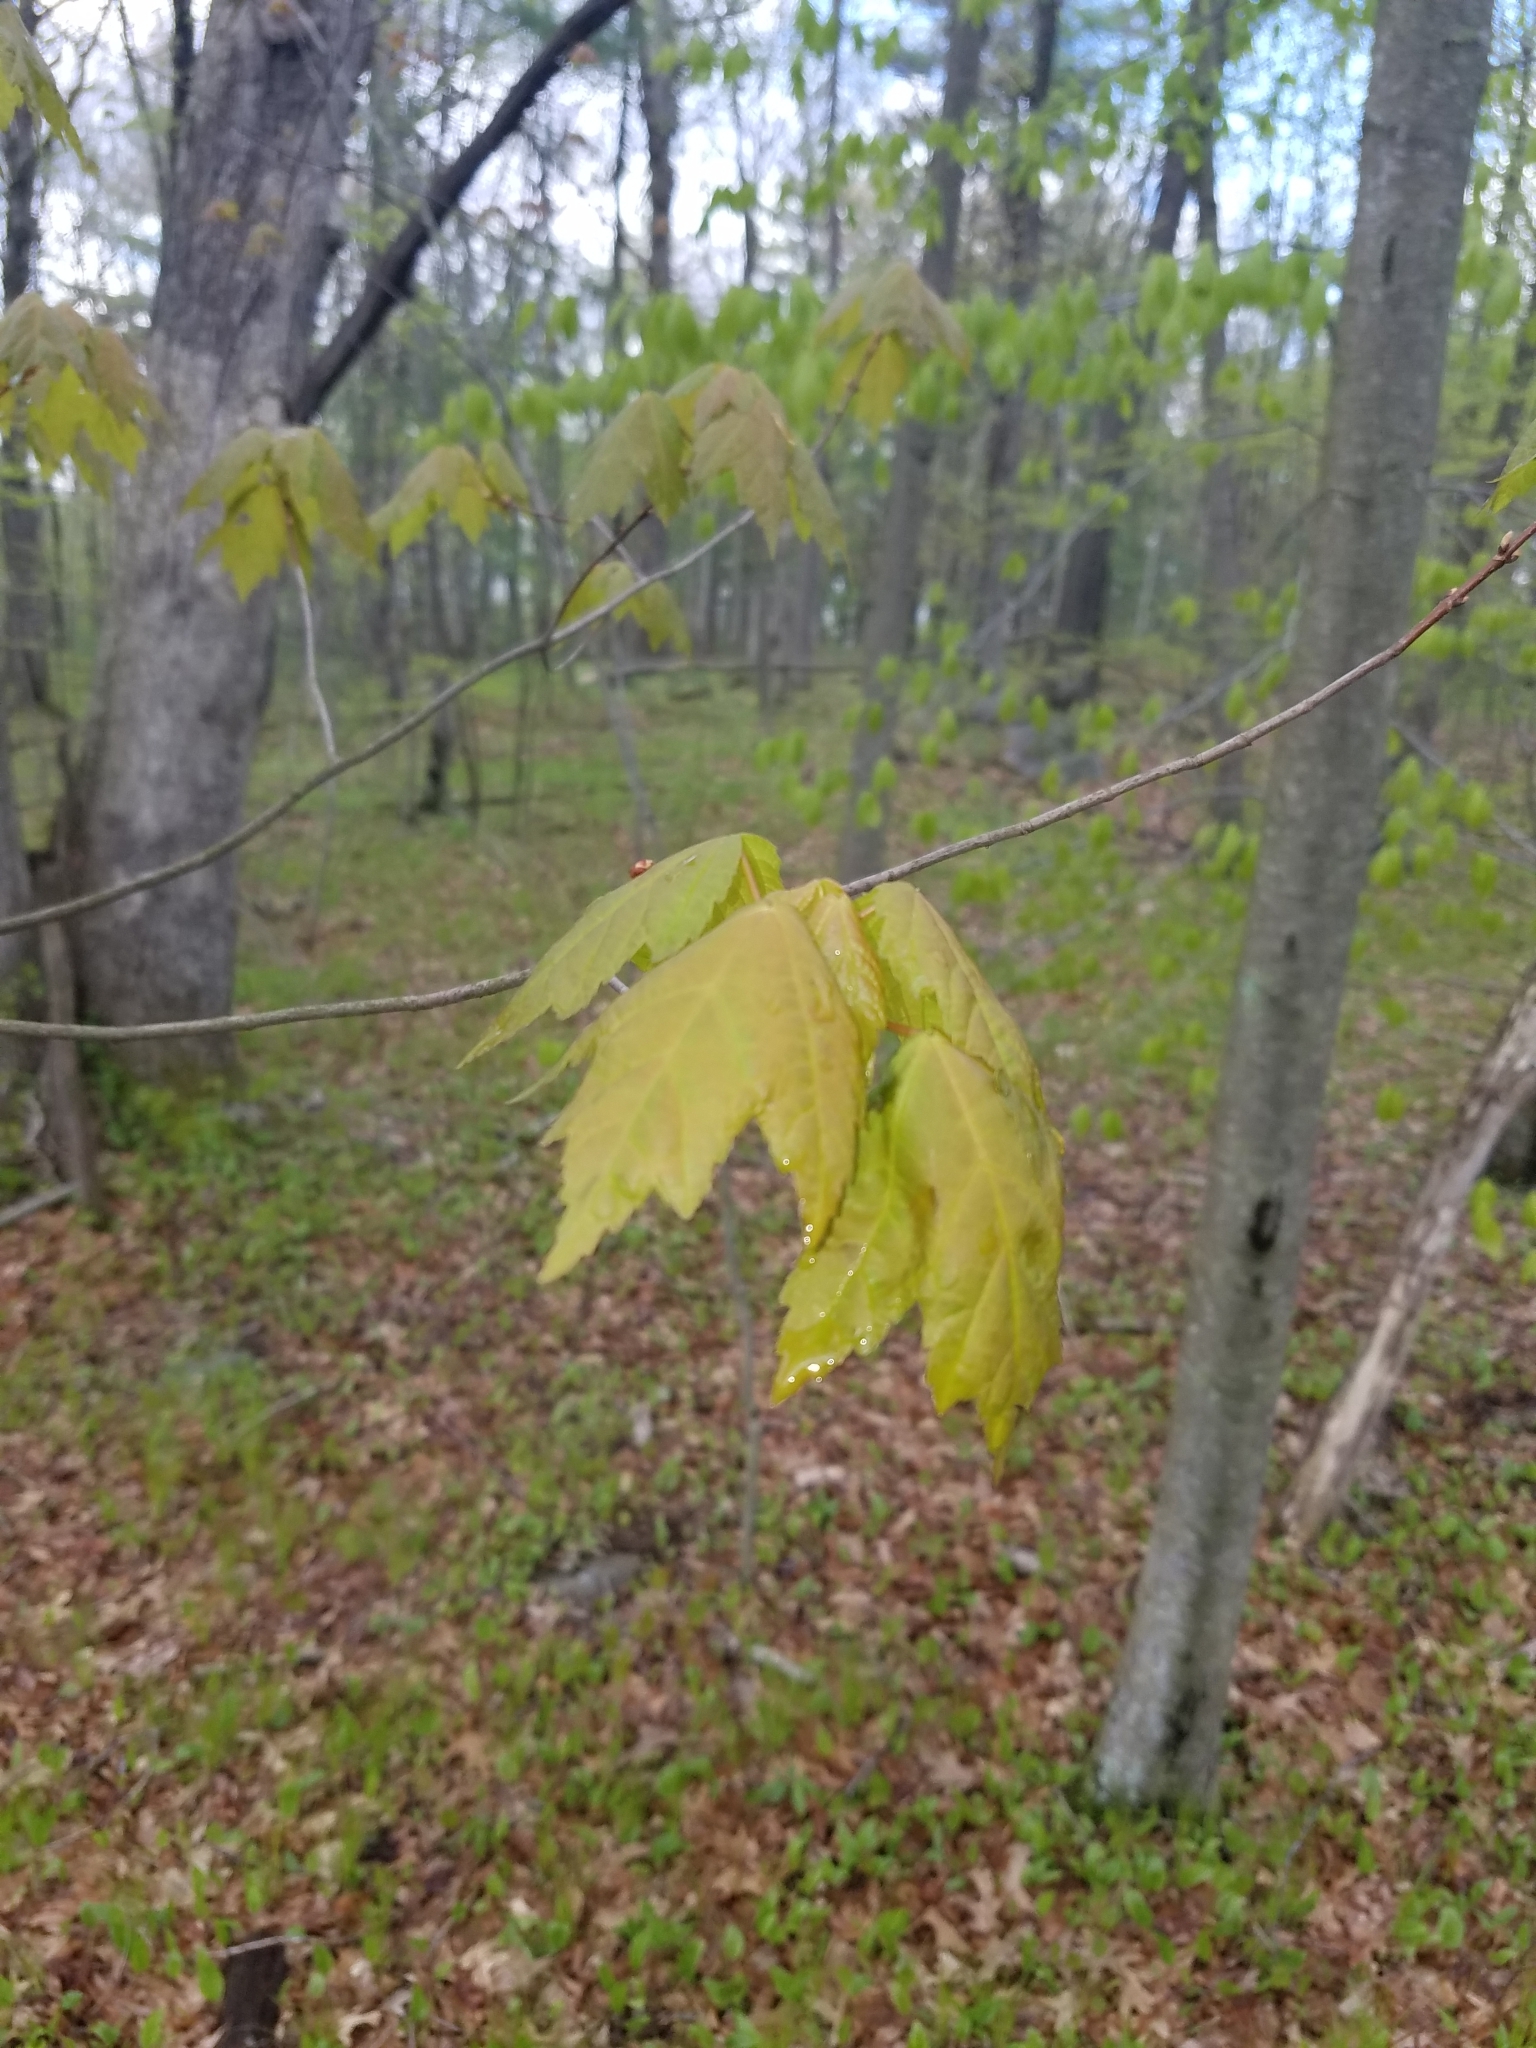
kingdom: Plantae
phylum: Tracheophyta
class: Magnoliopsida
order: Sapindales
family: Sapindaceae
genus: Acer
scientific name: Acer rubrum
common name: Red maple
